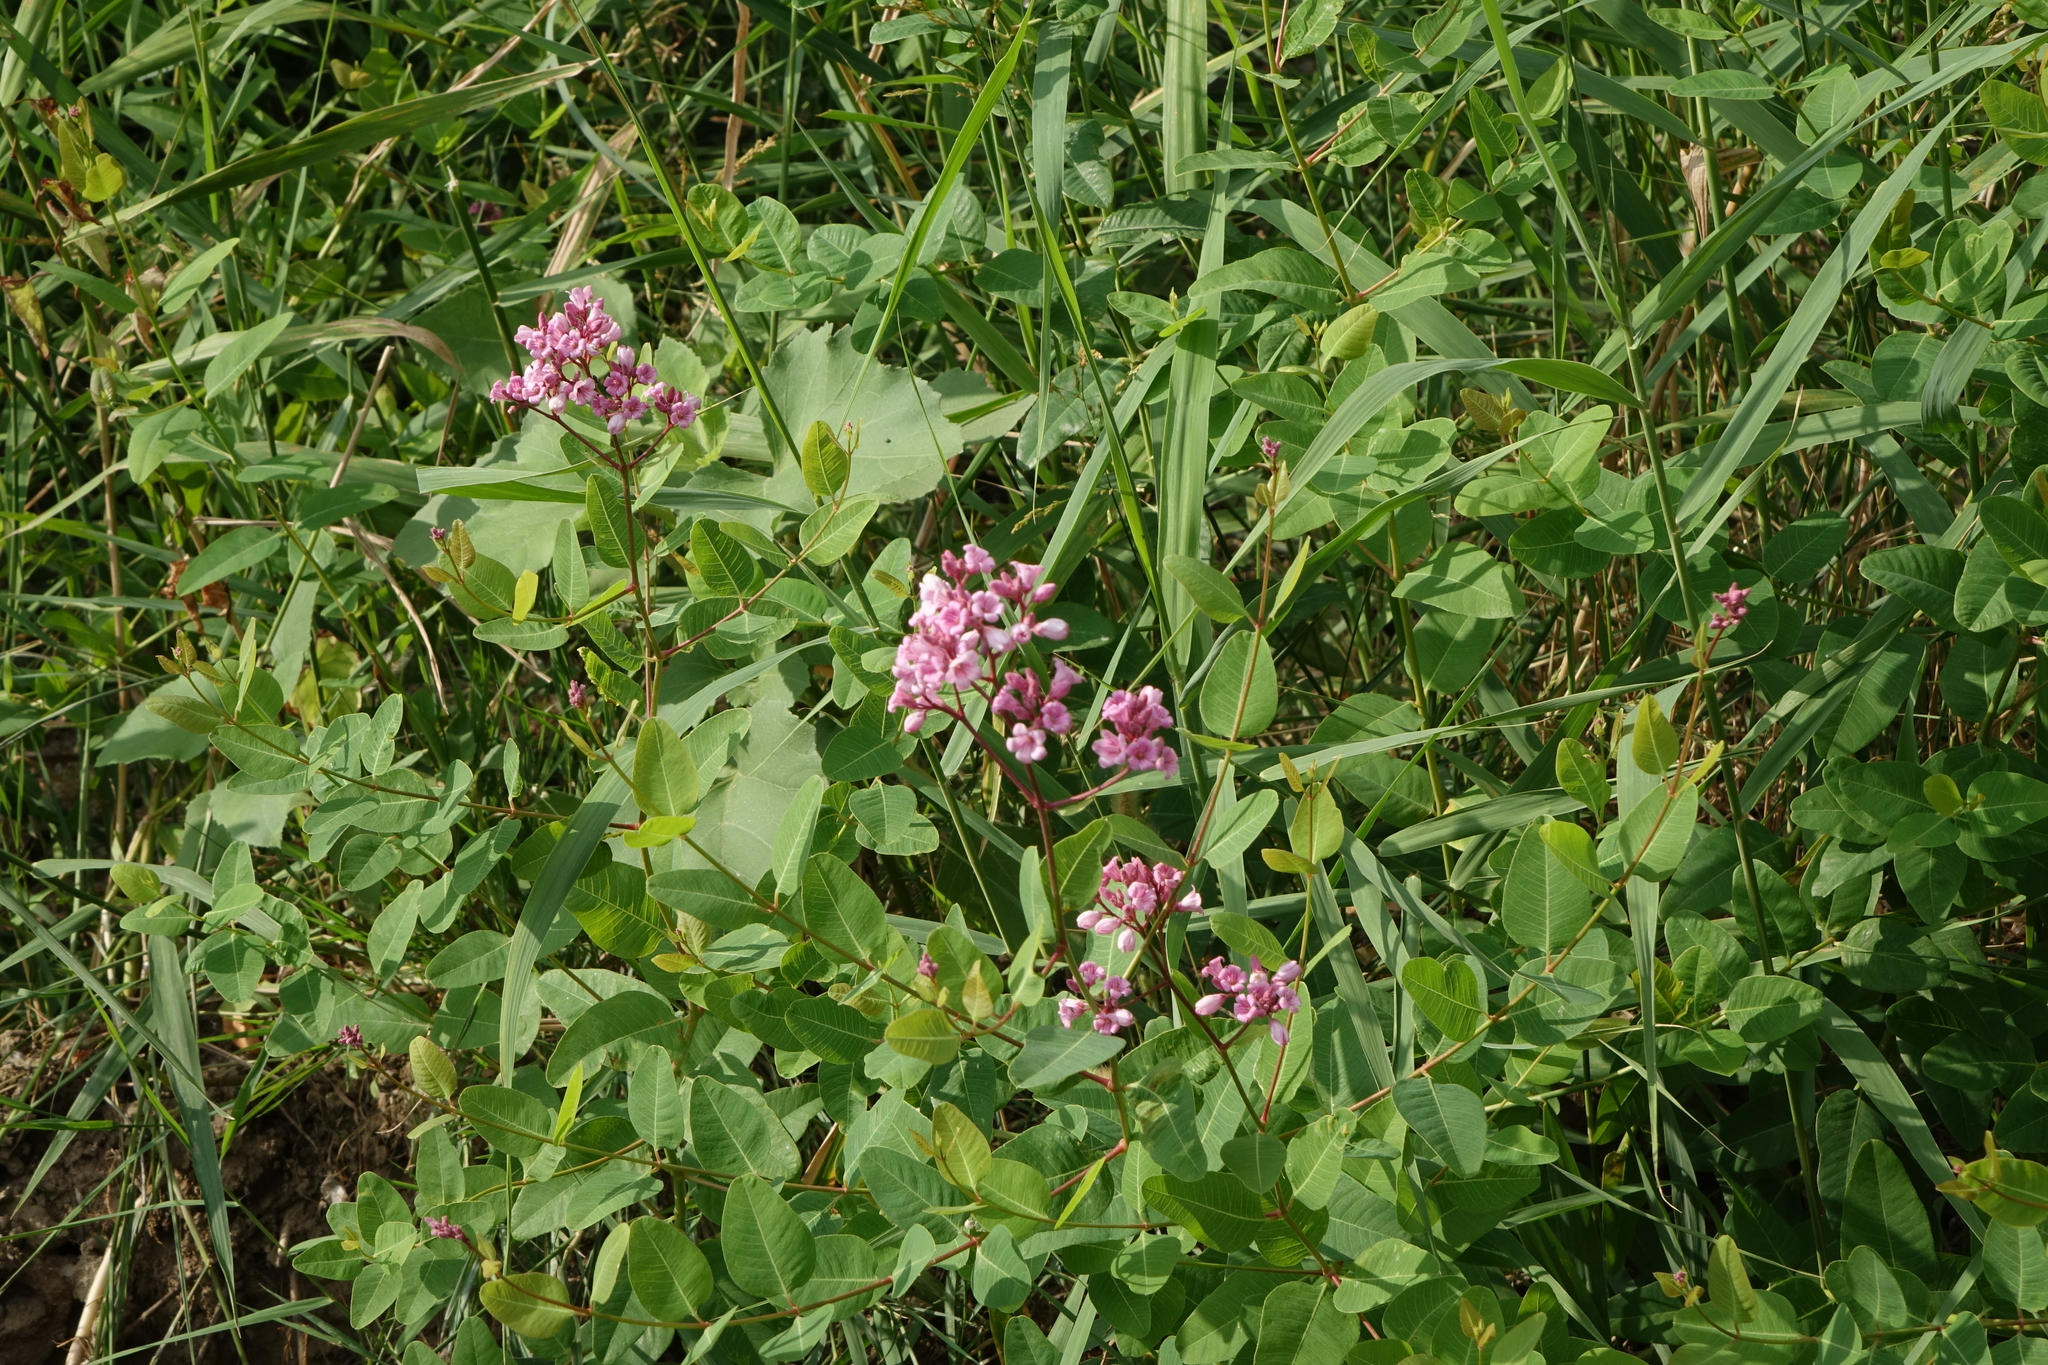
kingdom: Plantae
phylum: Tracheophyta
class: Magnoliopsida
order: Gentianales
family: Apocynaceae
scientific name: Apocynaceae
